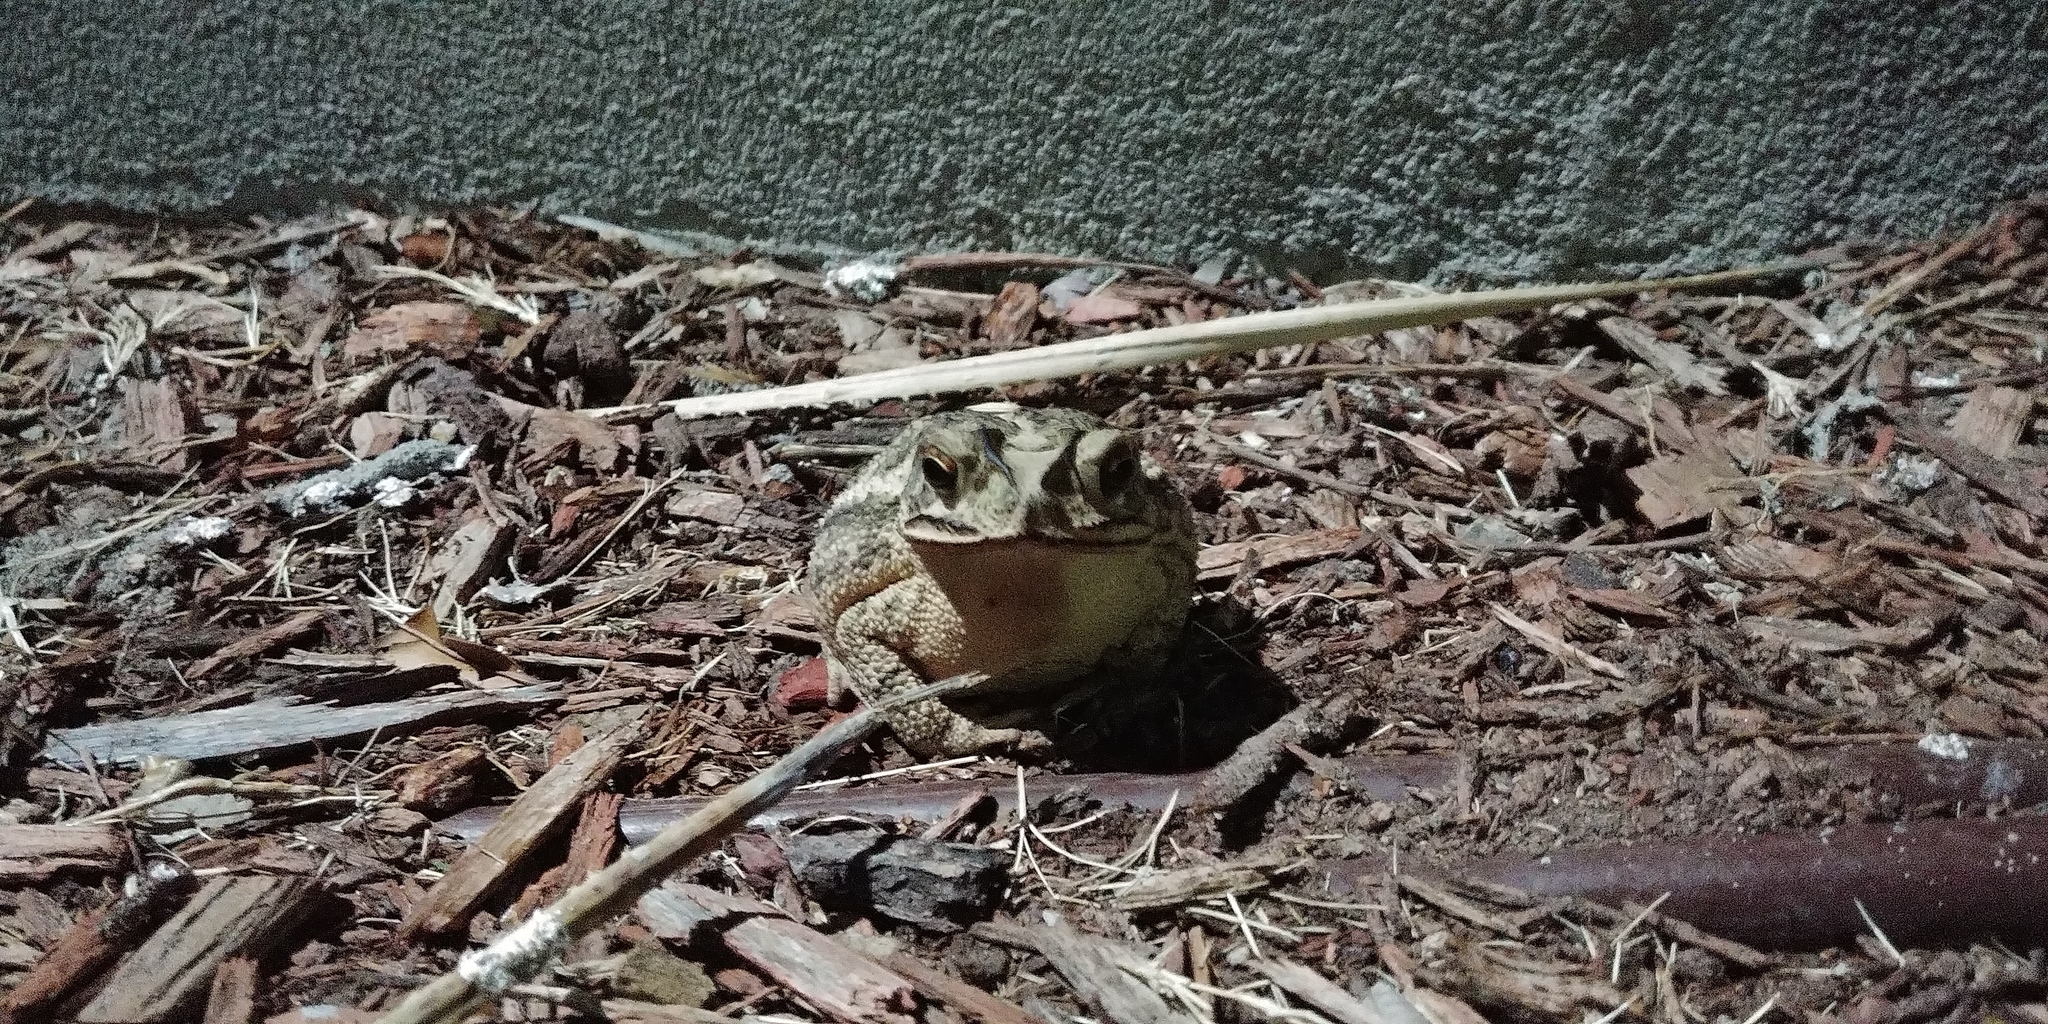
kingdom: Animalia
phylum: Chordata
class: Amphibia
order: Anura
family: Bufonidae
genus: Incilius
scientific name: Incilius nebulifer
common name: Gulf coast toad
